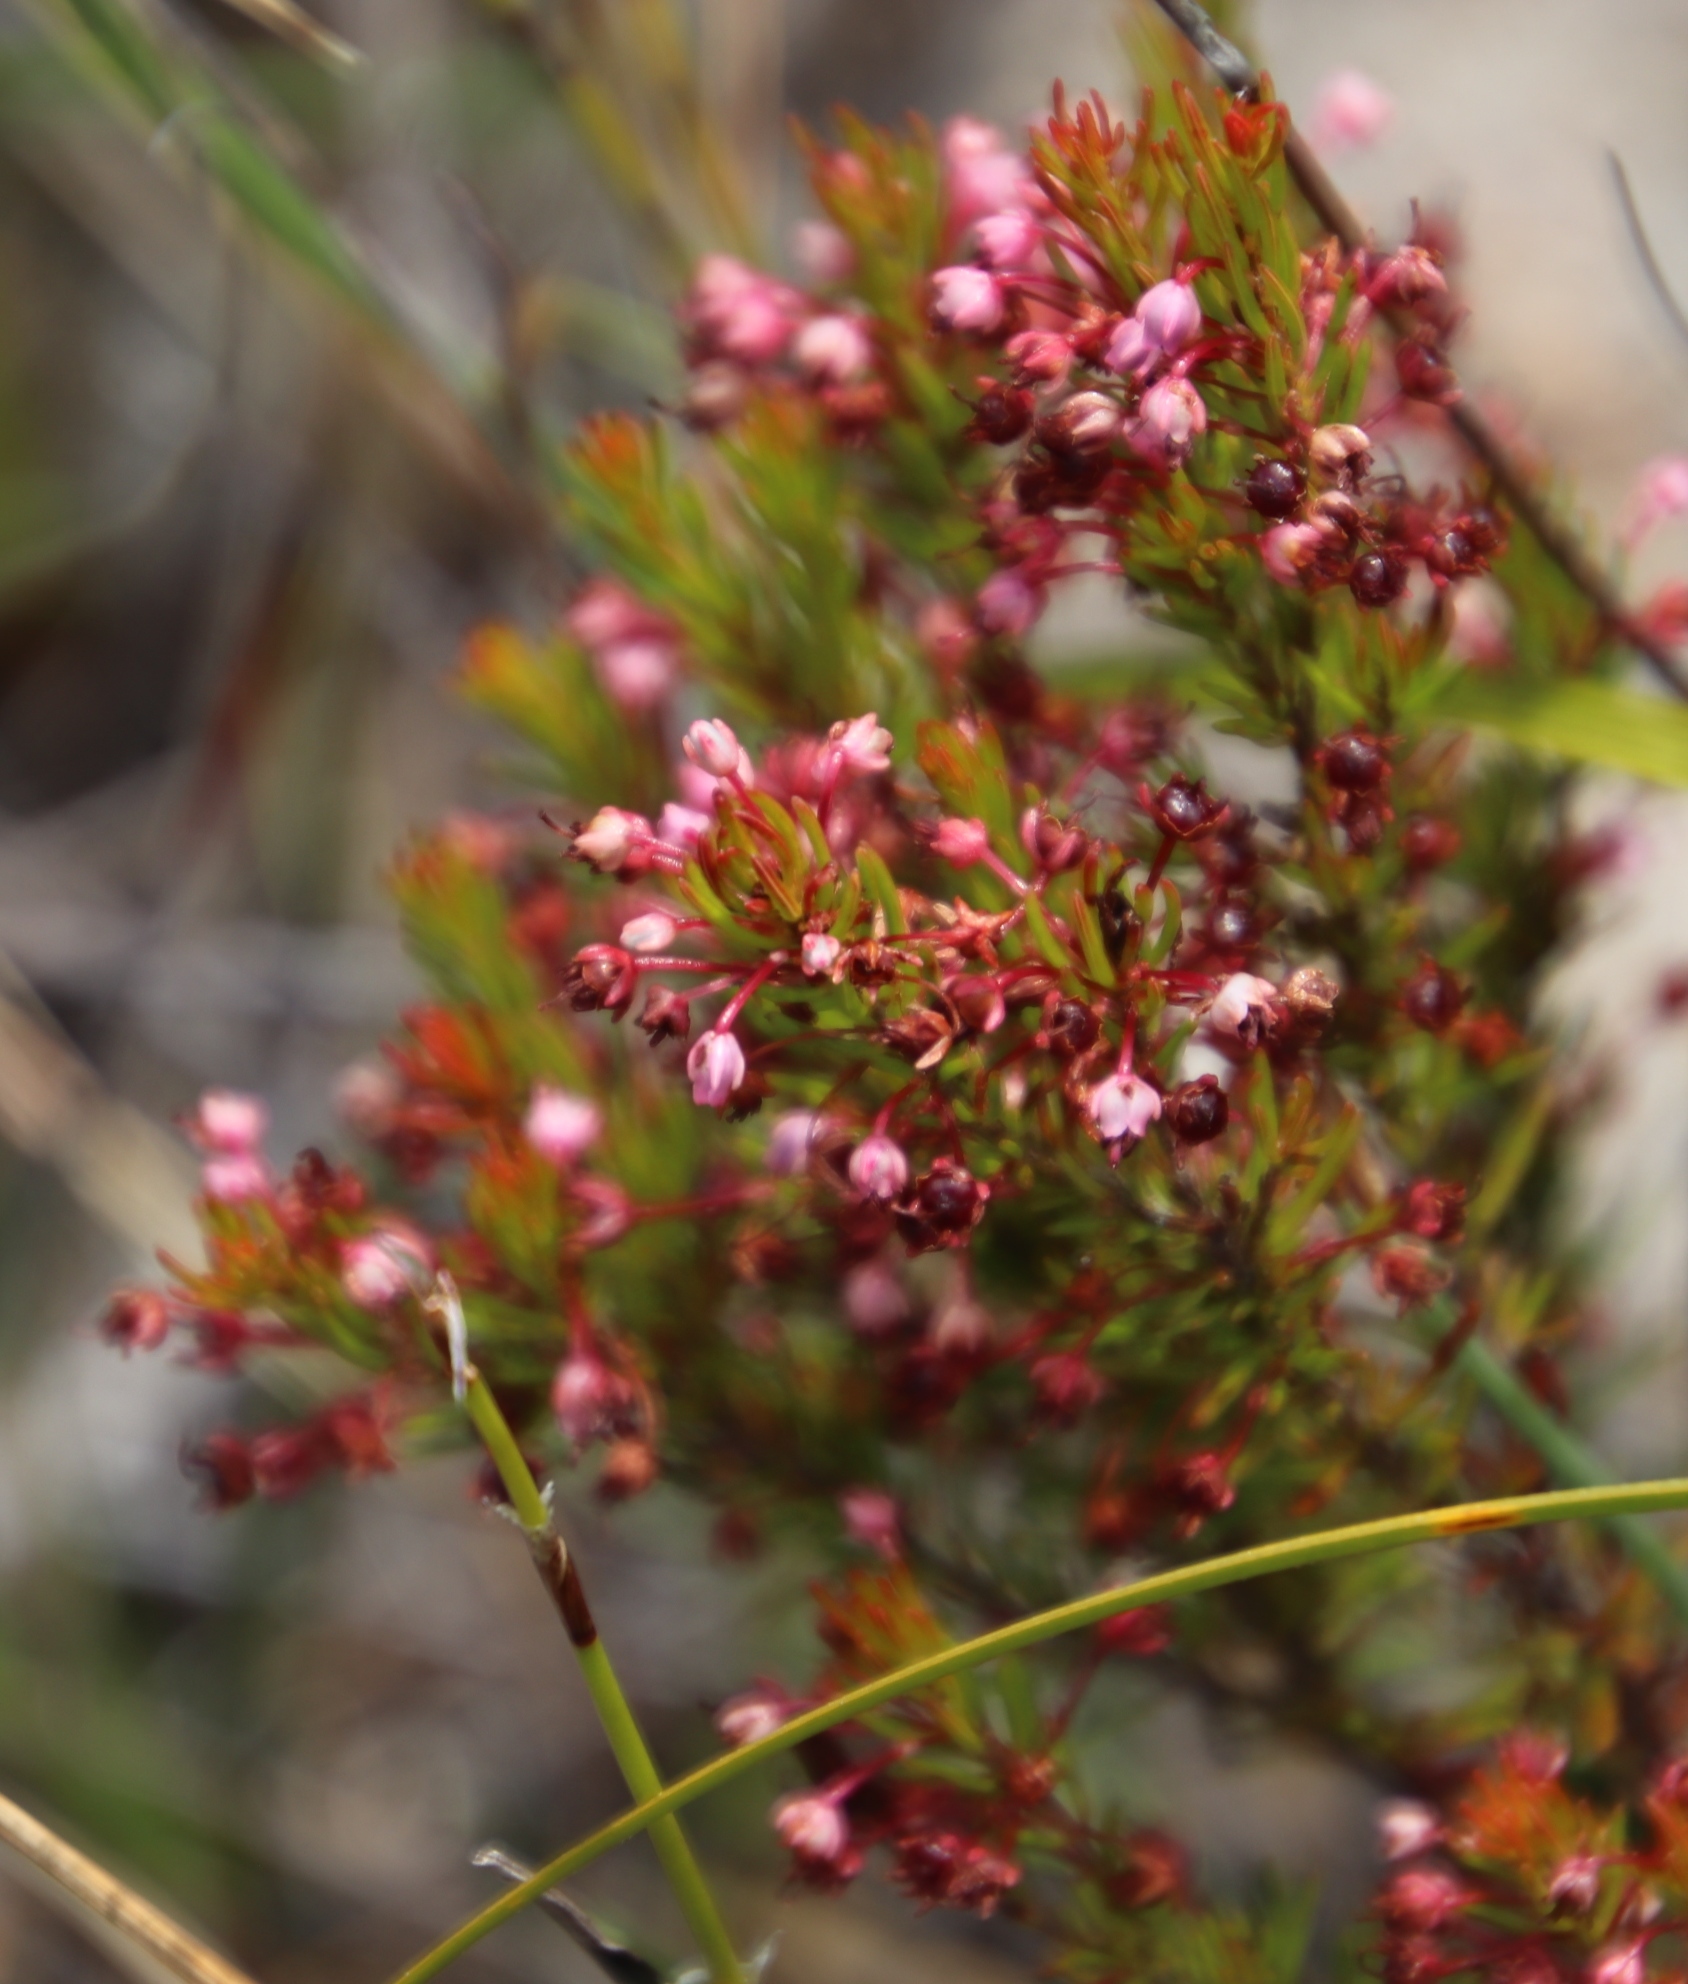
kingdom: Plantae
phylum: Tracheophyta
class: Magnoliopsida
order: Ericales
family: Ericaceae
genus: Erica
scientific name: Erica rubiginosa
